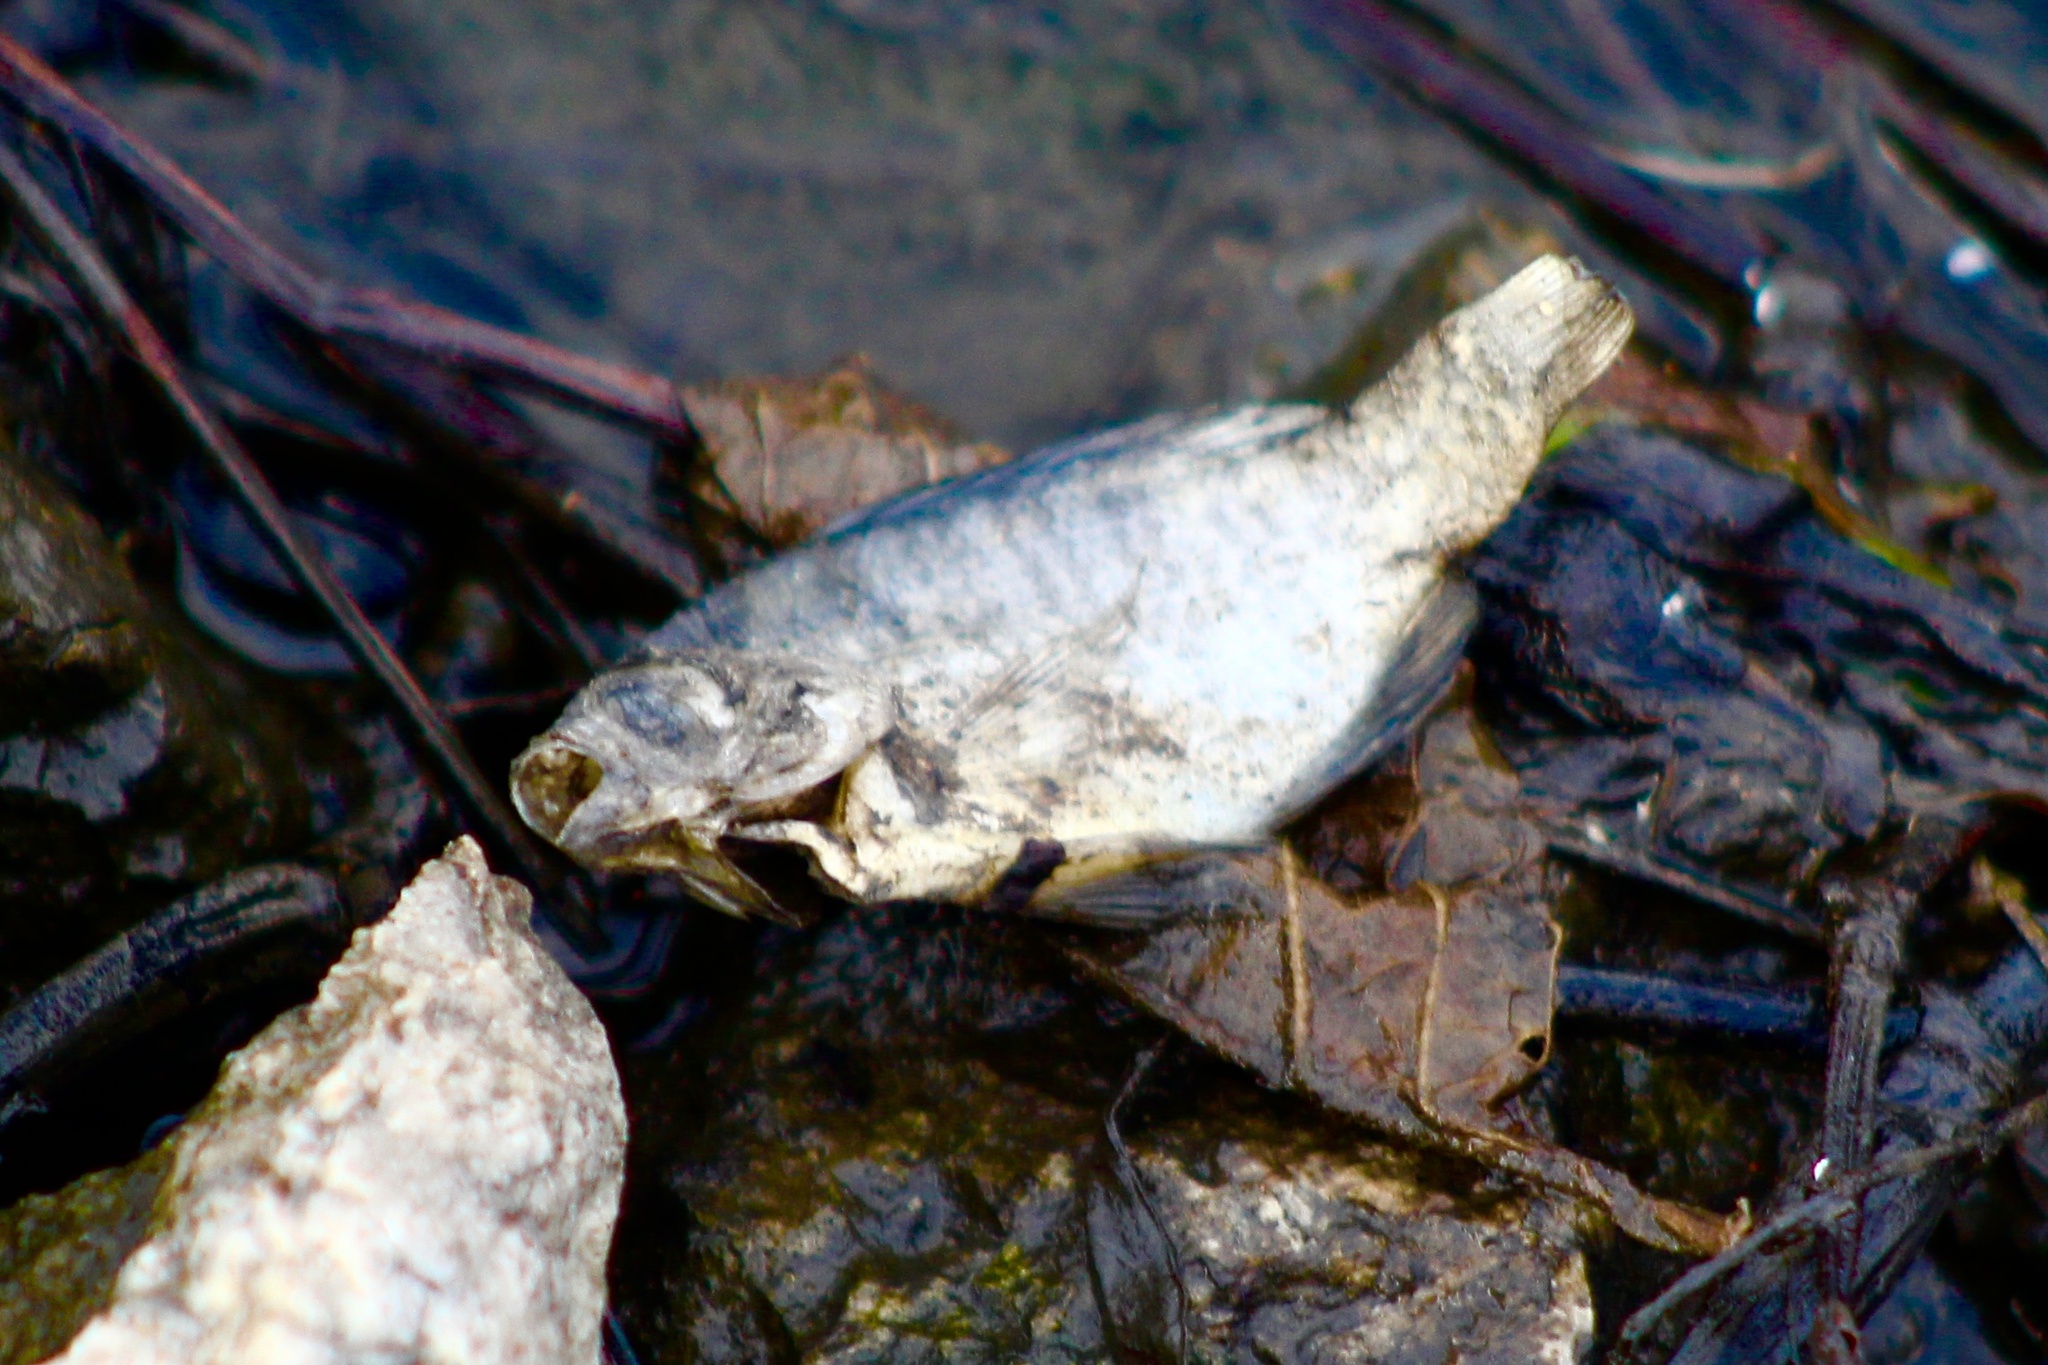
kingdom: Animalia
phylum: Chordata
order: Perciformes
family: Centrarchidae
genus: Lepomis
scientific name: Lepomis macrochirus
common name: Bluegill
